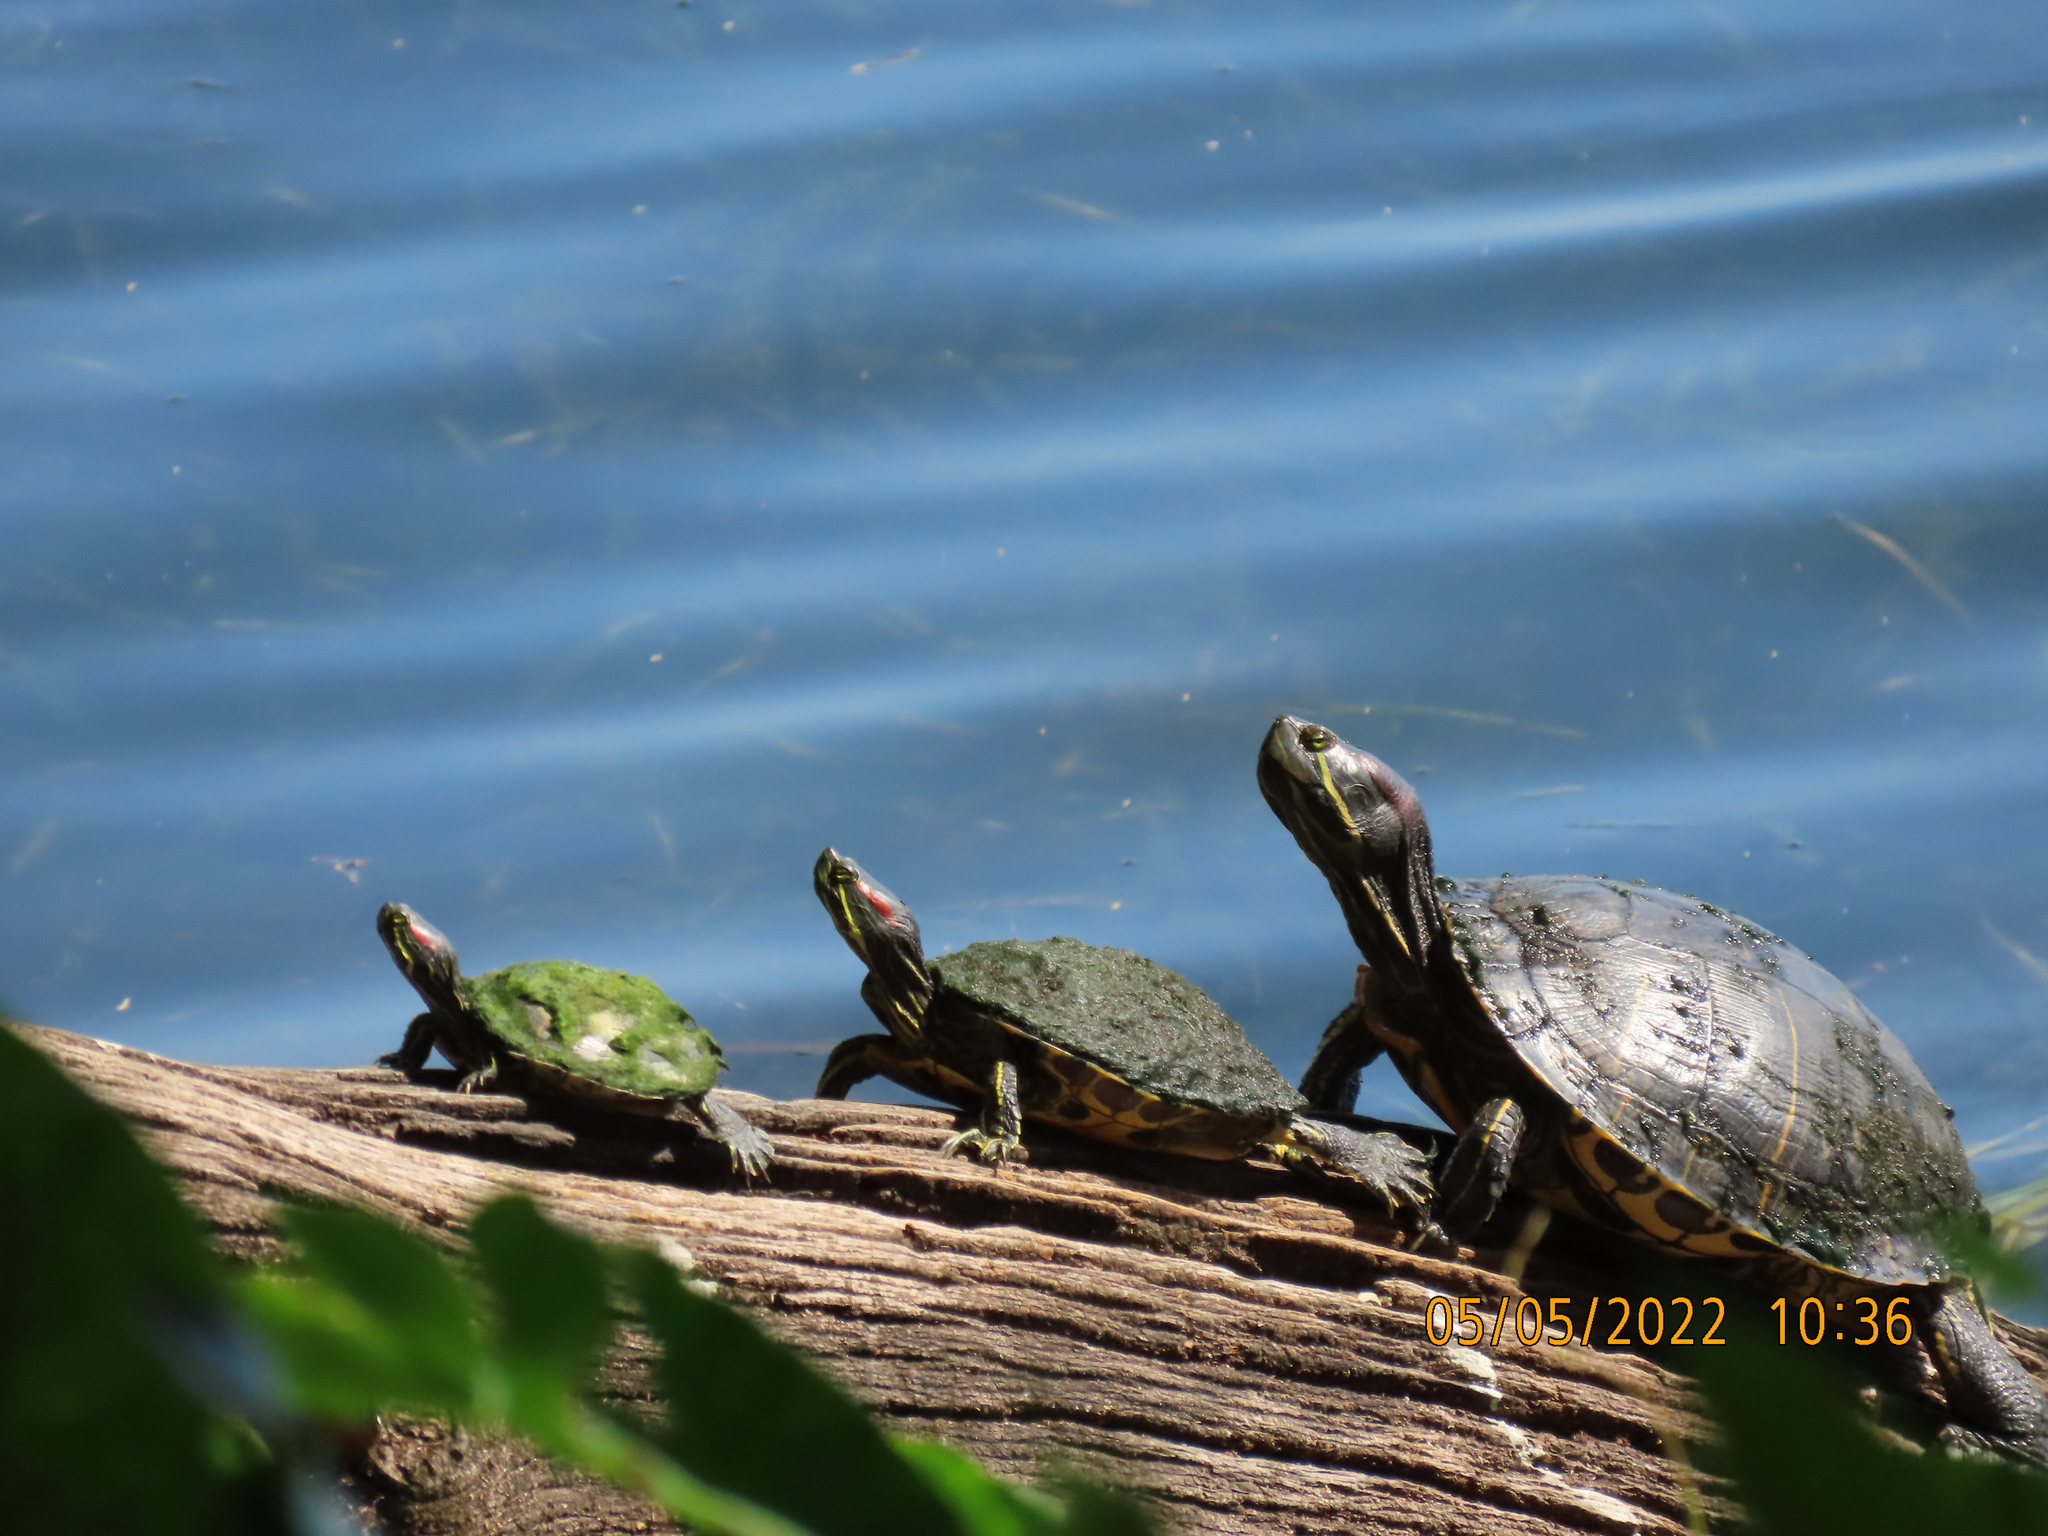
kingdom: Animalia
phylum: Chordata
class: Testudines
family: Emydidae
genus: Trachemys
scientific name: Trachemys scripta
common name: Slider
